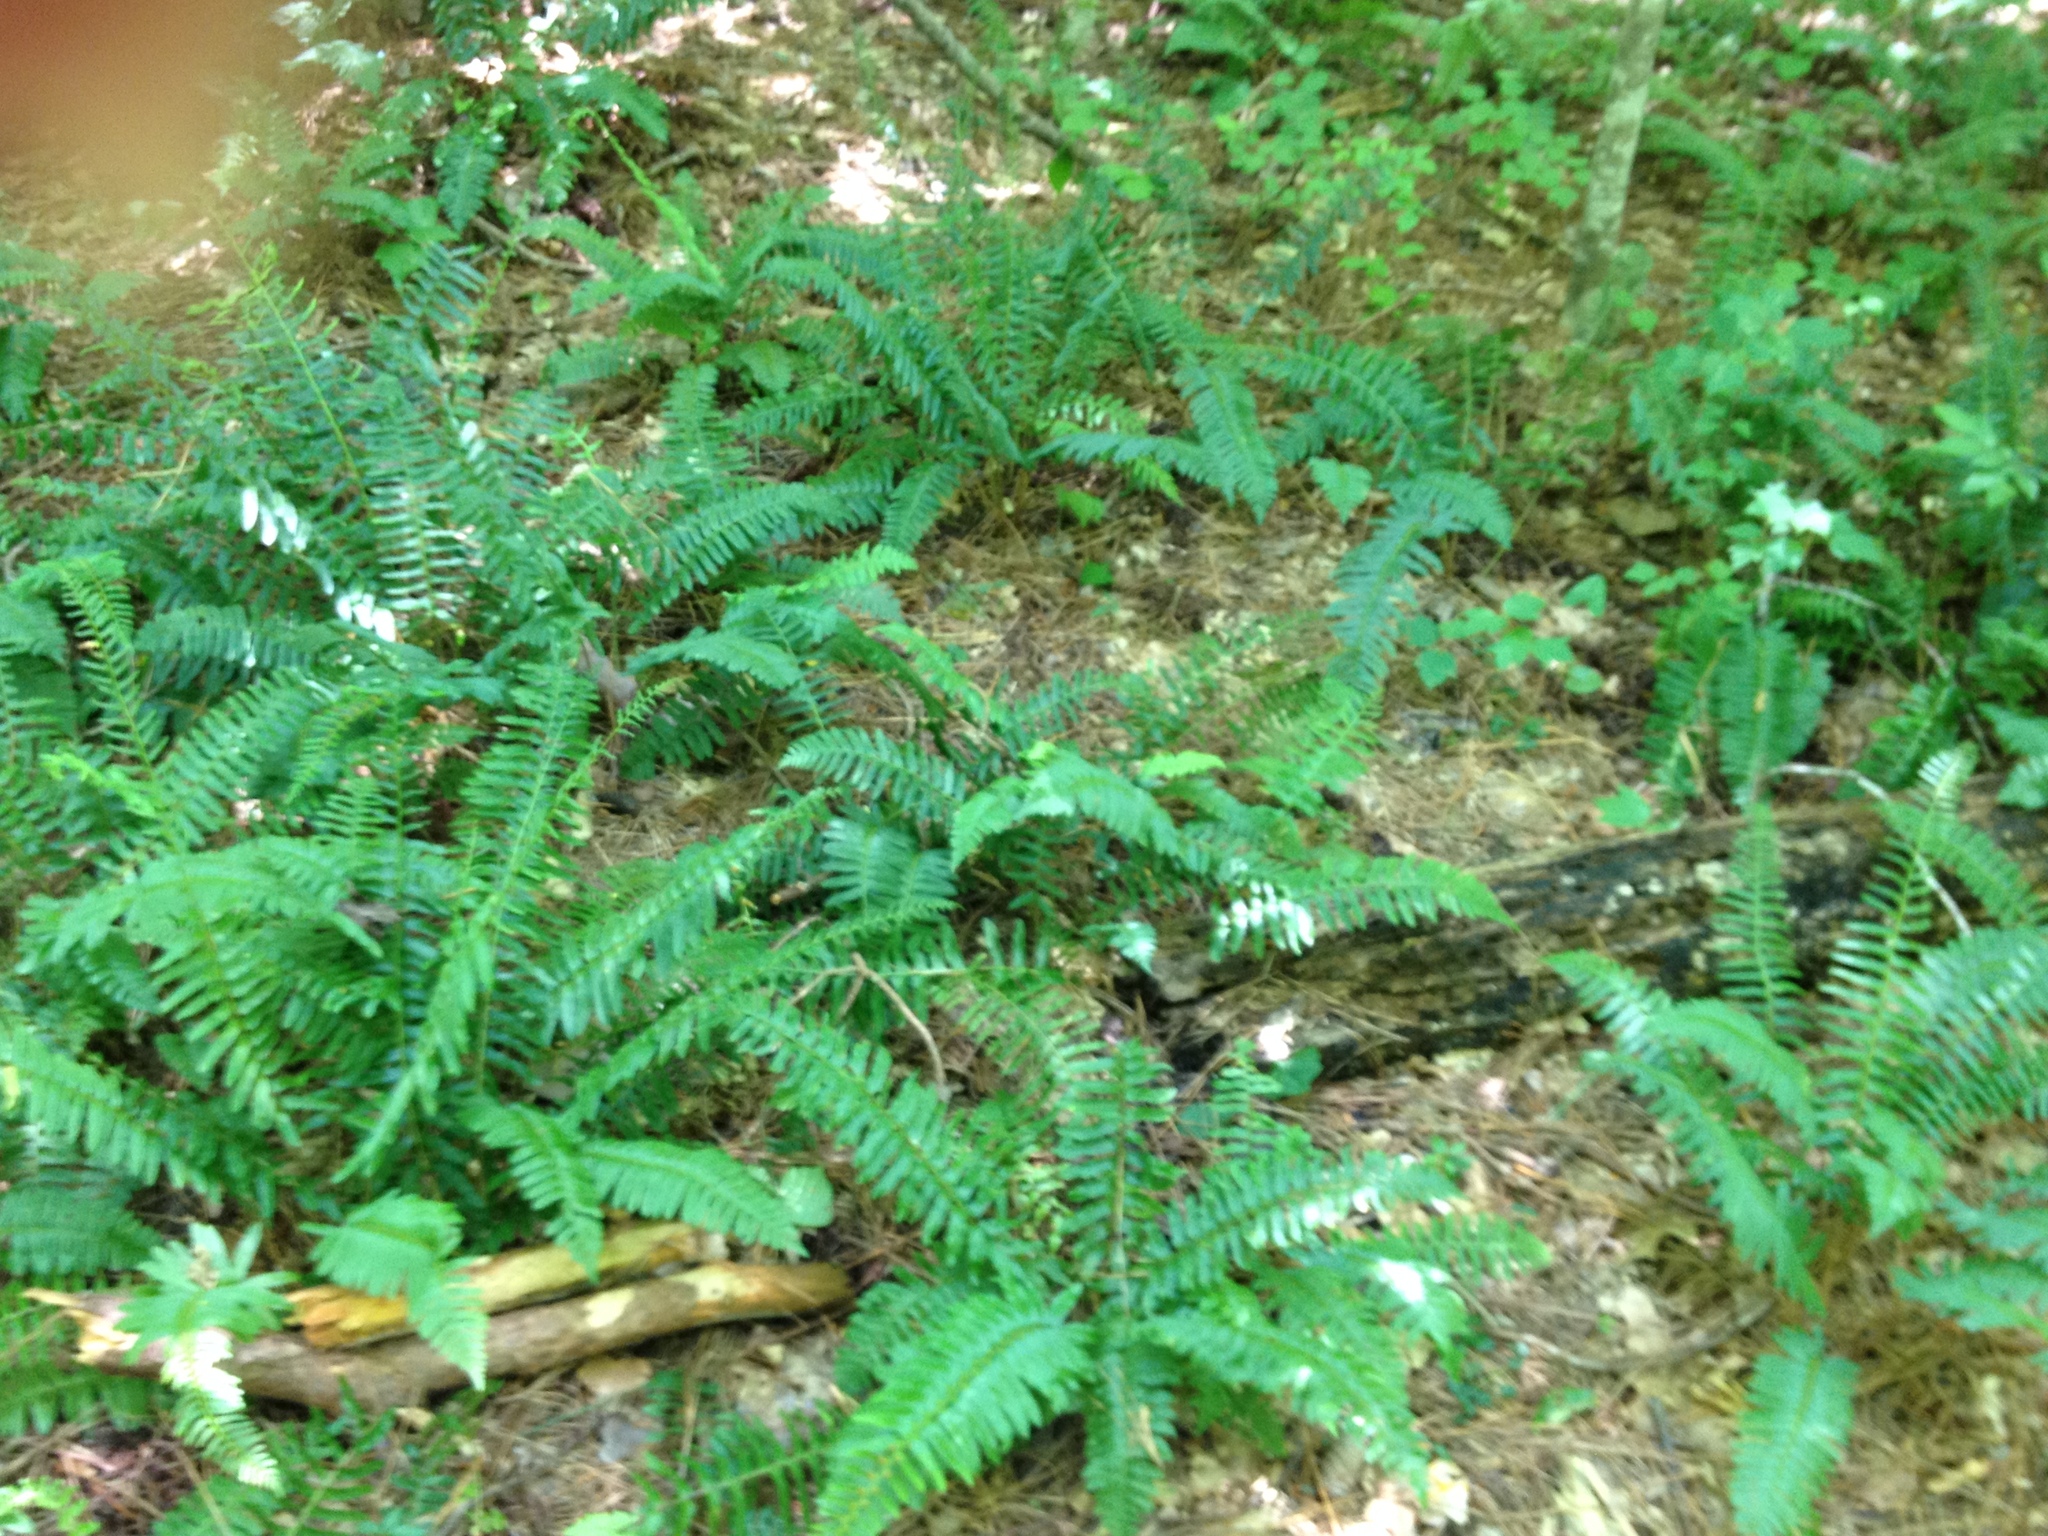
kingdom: Plantae
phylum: Tracheophyta
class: Polypodiopsida
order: Polypodiales
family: Dryopteridaceae
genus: Polystichum
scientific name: Polystichum acrostichoides
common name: Christmas fern
